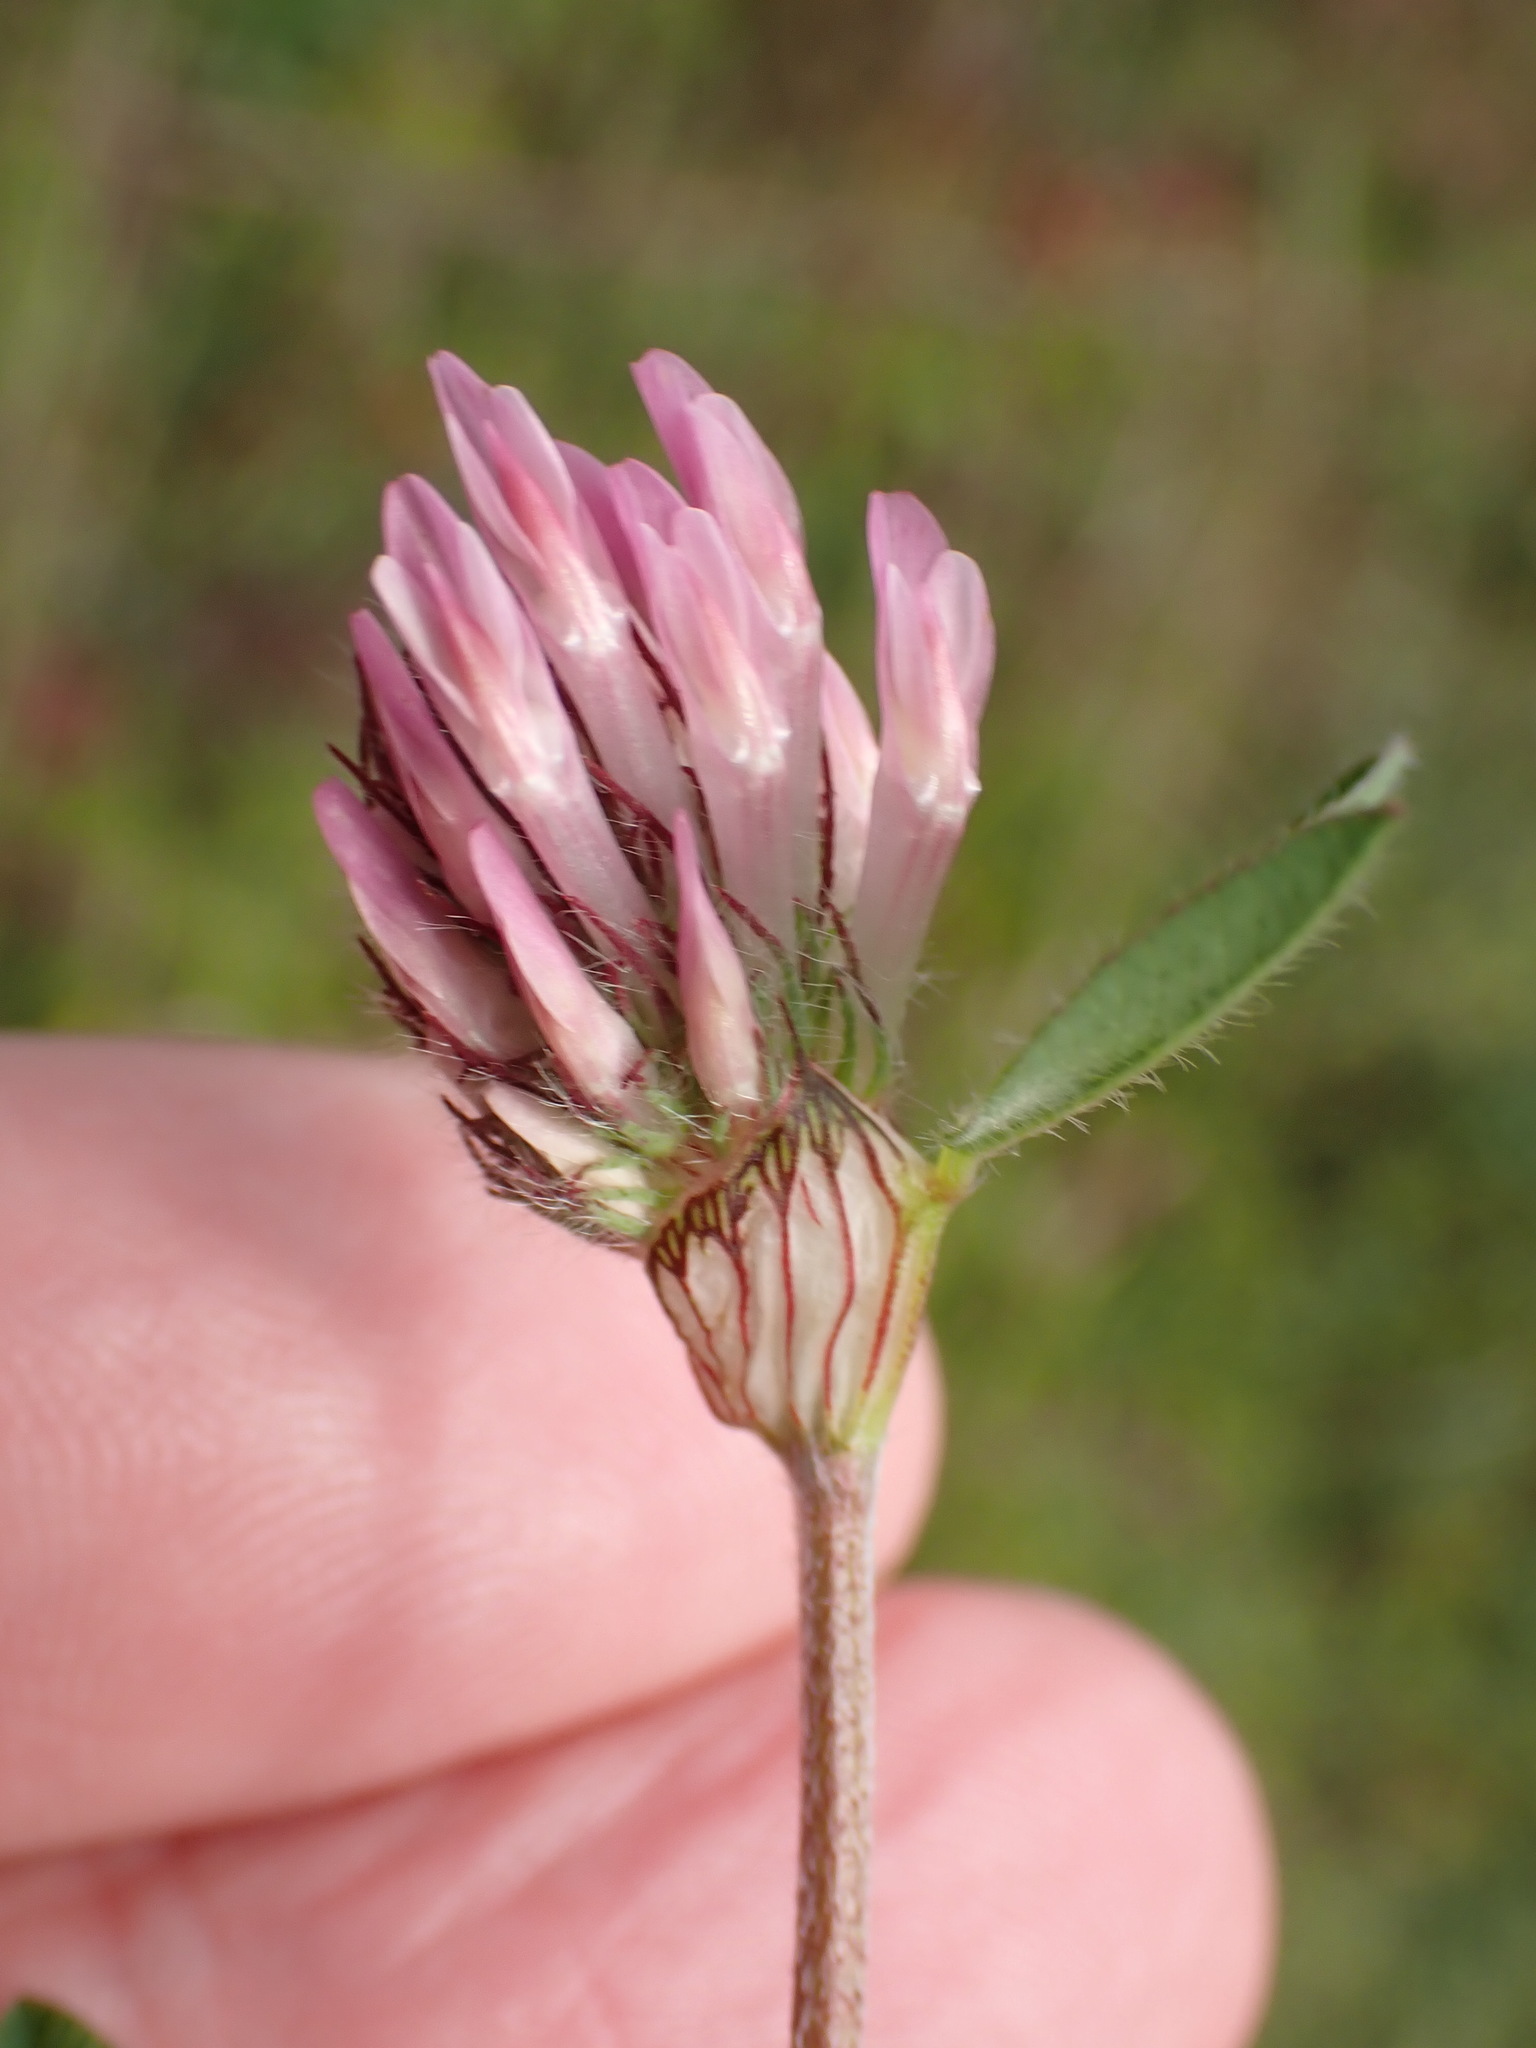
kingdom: Plantae
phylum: Tracheophyta
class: Magnoliopsida
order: Fabales
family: Fabaceae
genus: Trifolium
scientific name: Trifolium pratense
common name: Red clover
